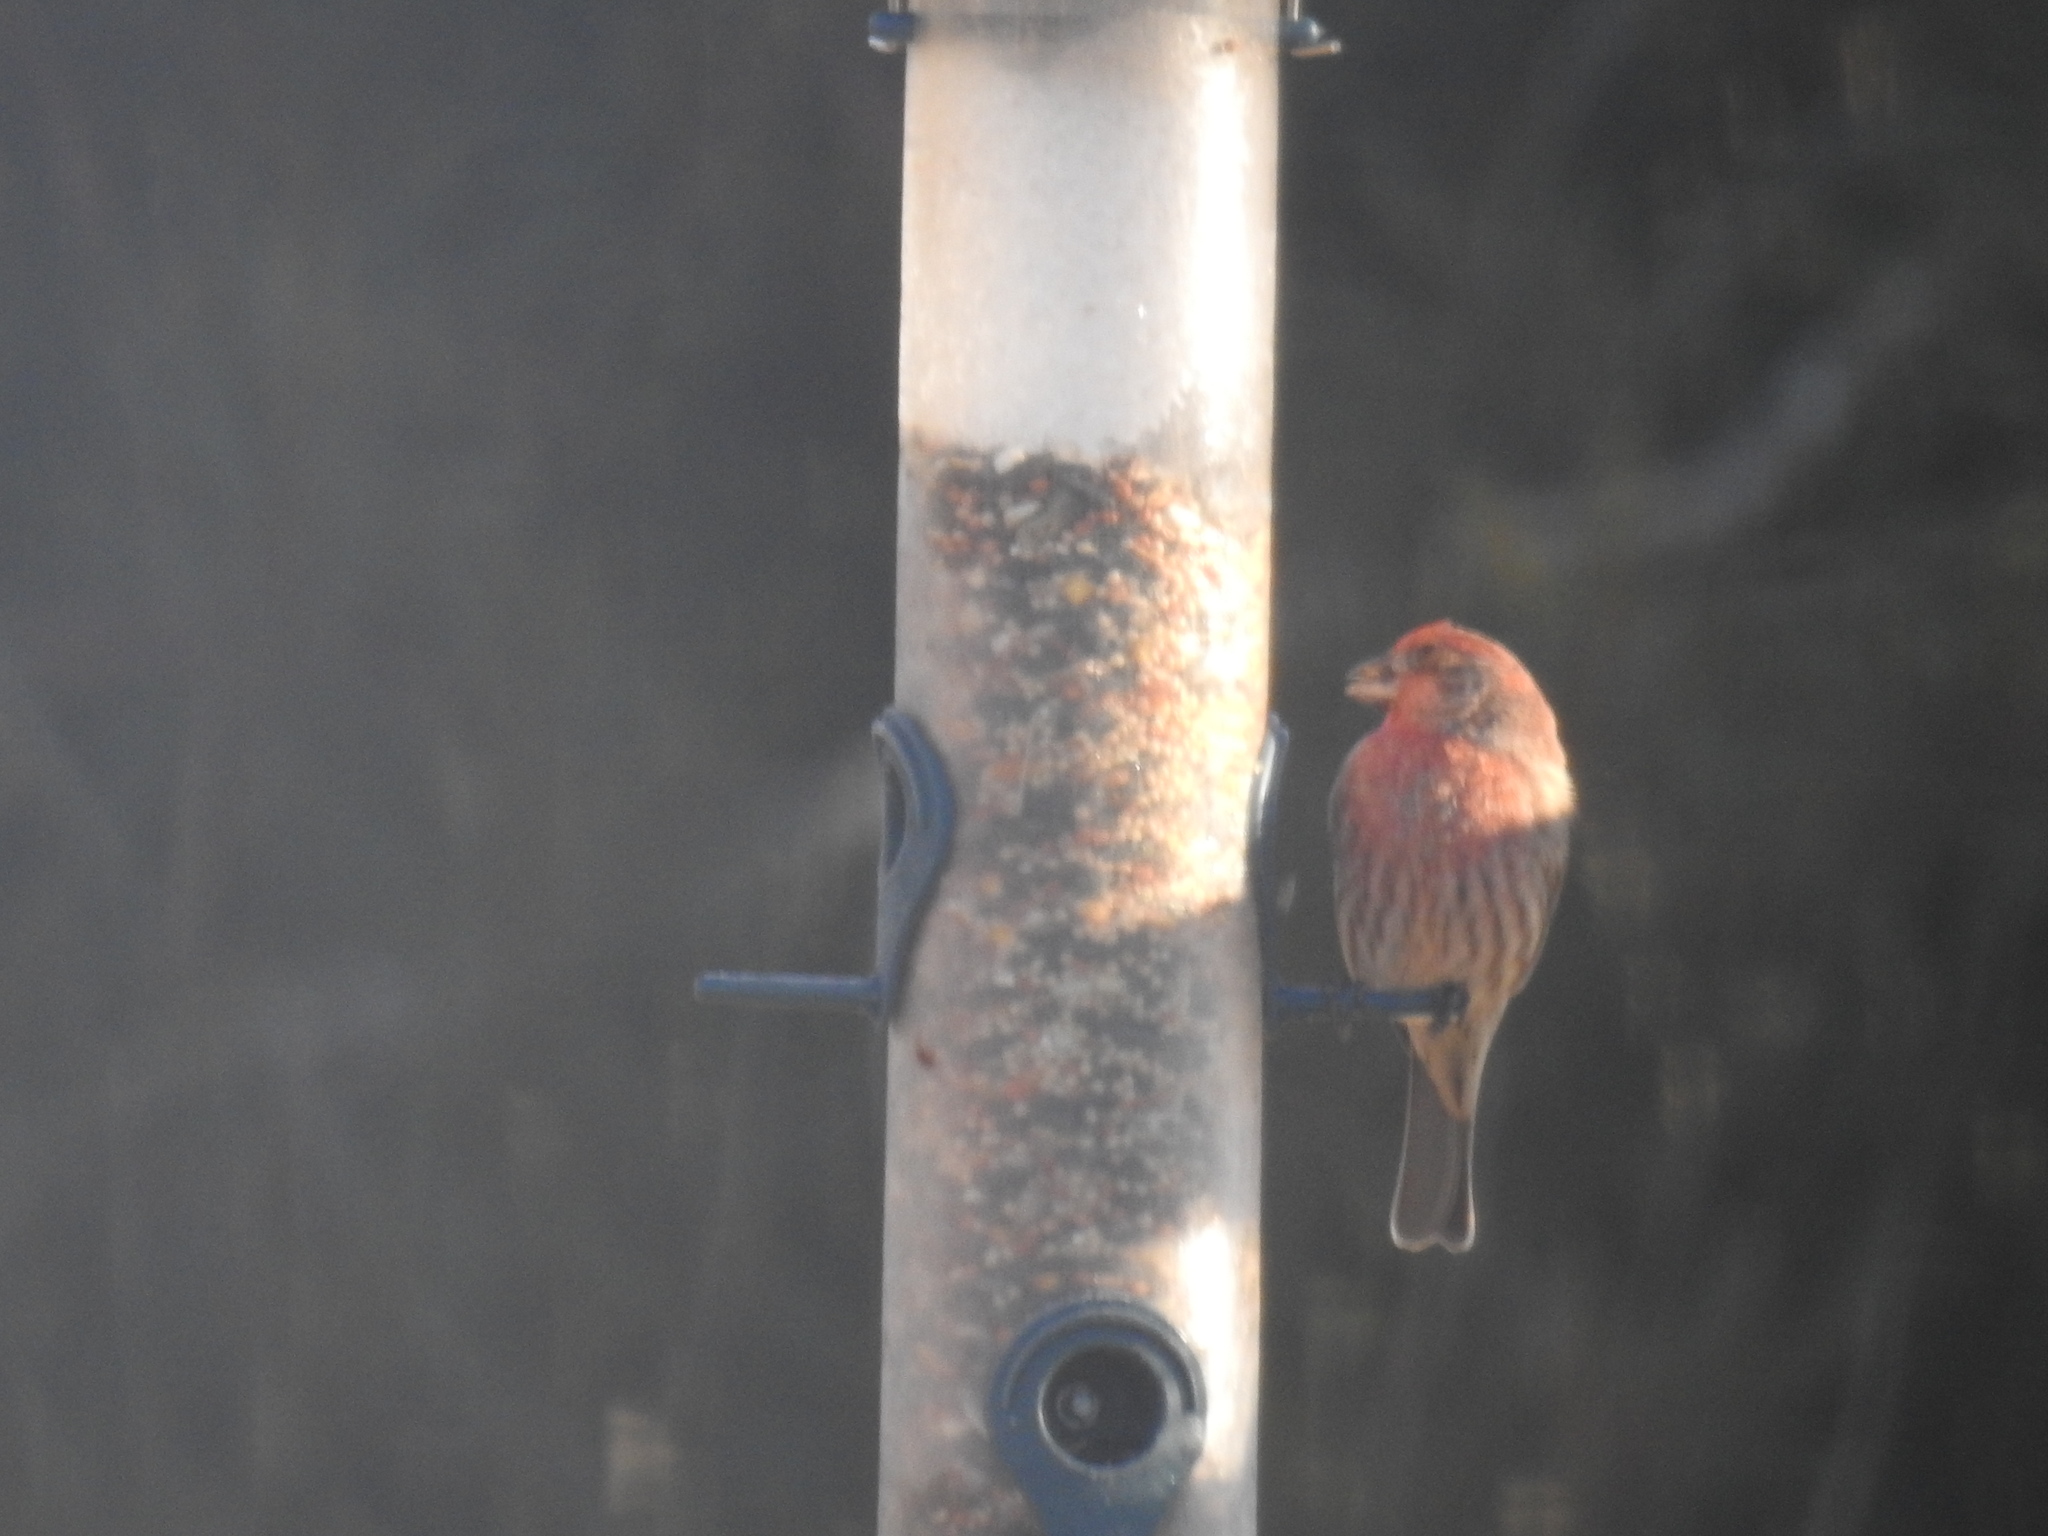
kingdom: Animalia
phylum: Chordata
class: Aves
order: Passeriformes
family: Fringillidae
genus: Haemorhous
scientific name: Haemorhous mexicanus
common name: House finch
